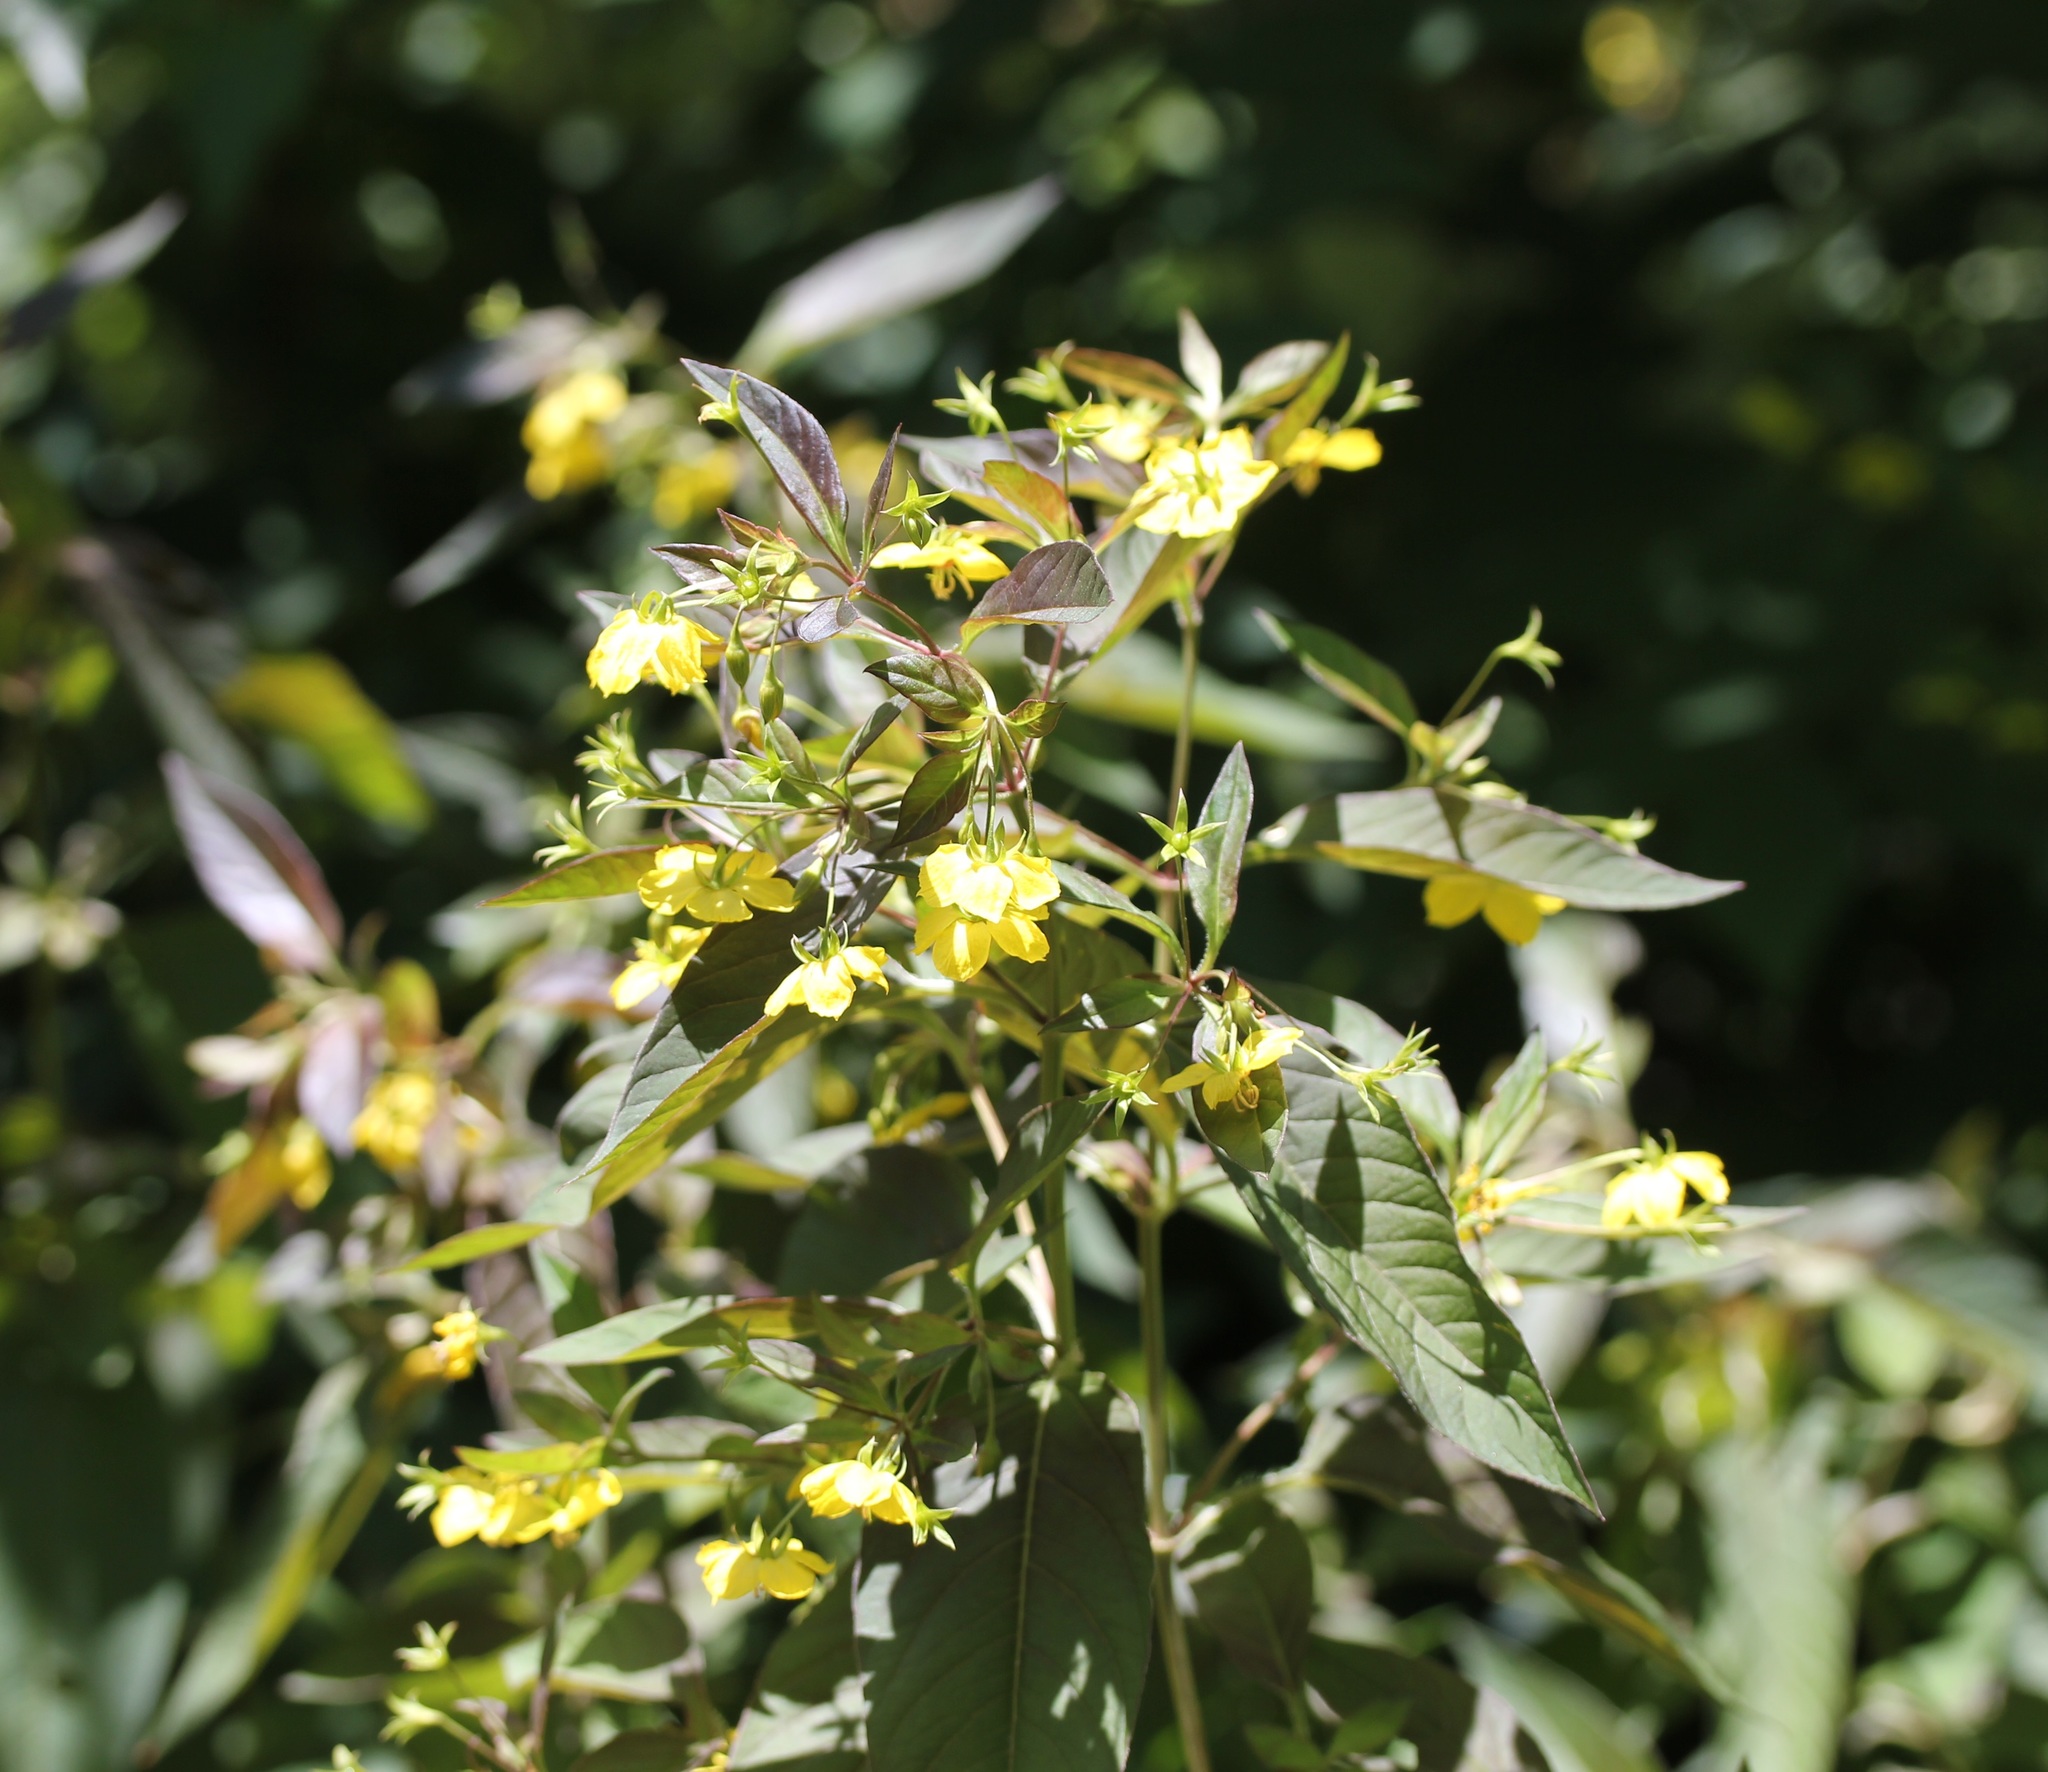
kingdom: Plantae
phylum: Tracheophyta
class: Magnoliopsida
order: Ericales
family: Primulaceae
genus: Lysimachia
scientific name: Lysimachia ciliata
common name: Fringed loosestrife
